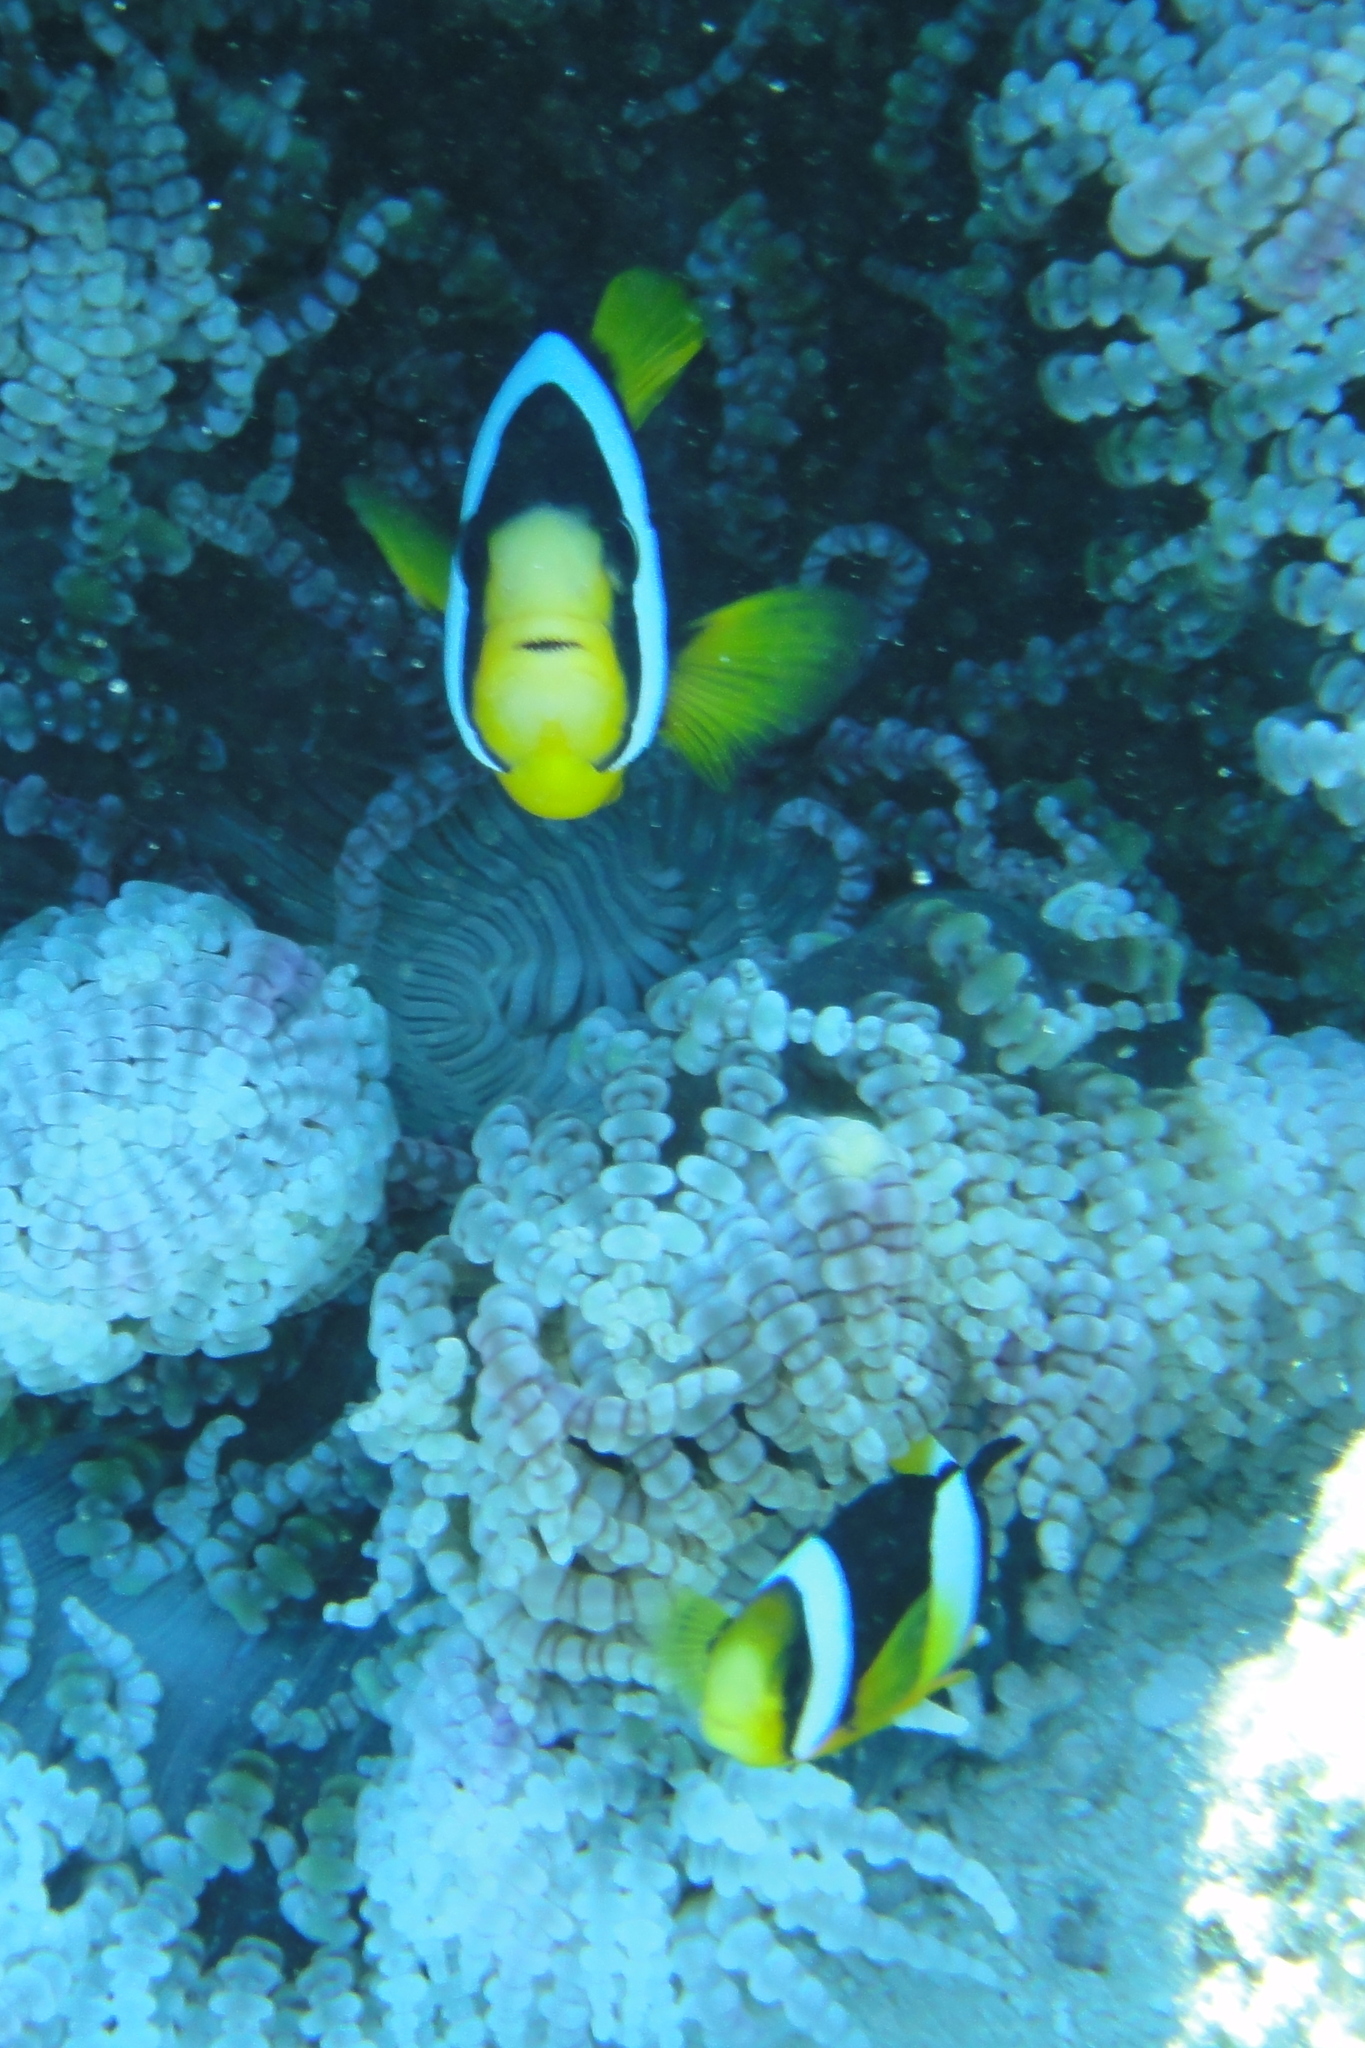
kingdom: Animalia
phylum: Chordata
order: Perciformes
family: Pomacentridae
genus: Amphiprion
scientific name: Amphiprion clarkii
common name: Clark's anemonefish
